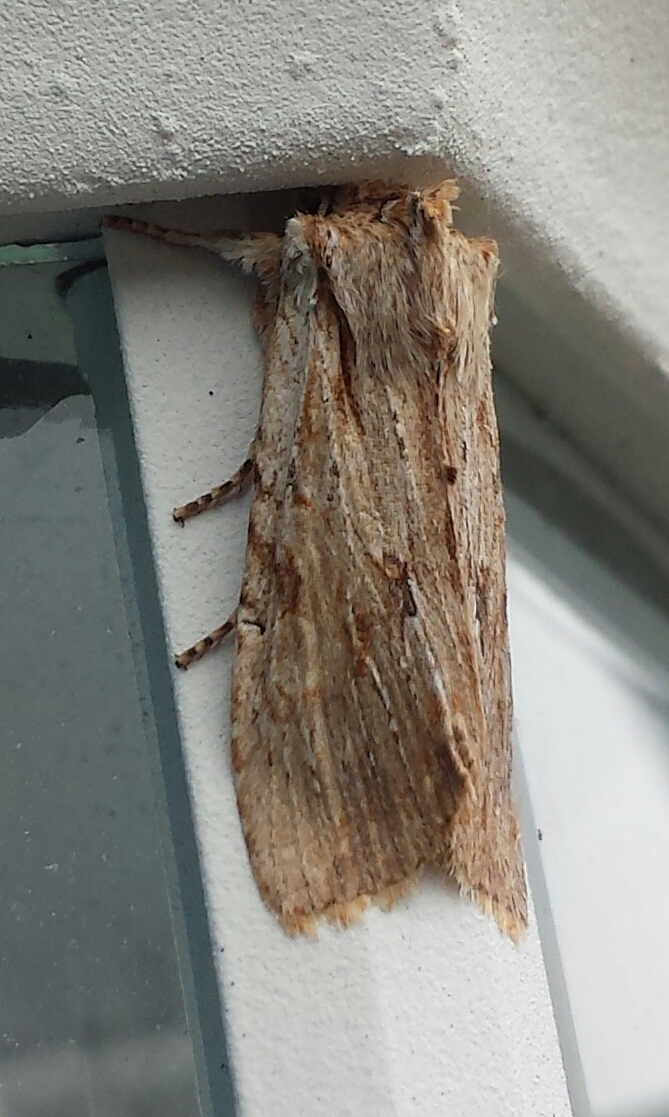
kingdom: Animalia
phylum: Arthropoda
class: Insecta
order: Lepidoptera
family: Noctuidae
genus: Lithophane
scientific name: Lithophane amanda
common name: Amanda's pinion moth
